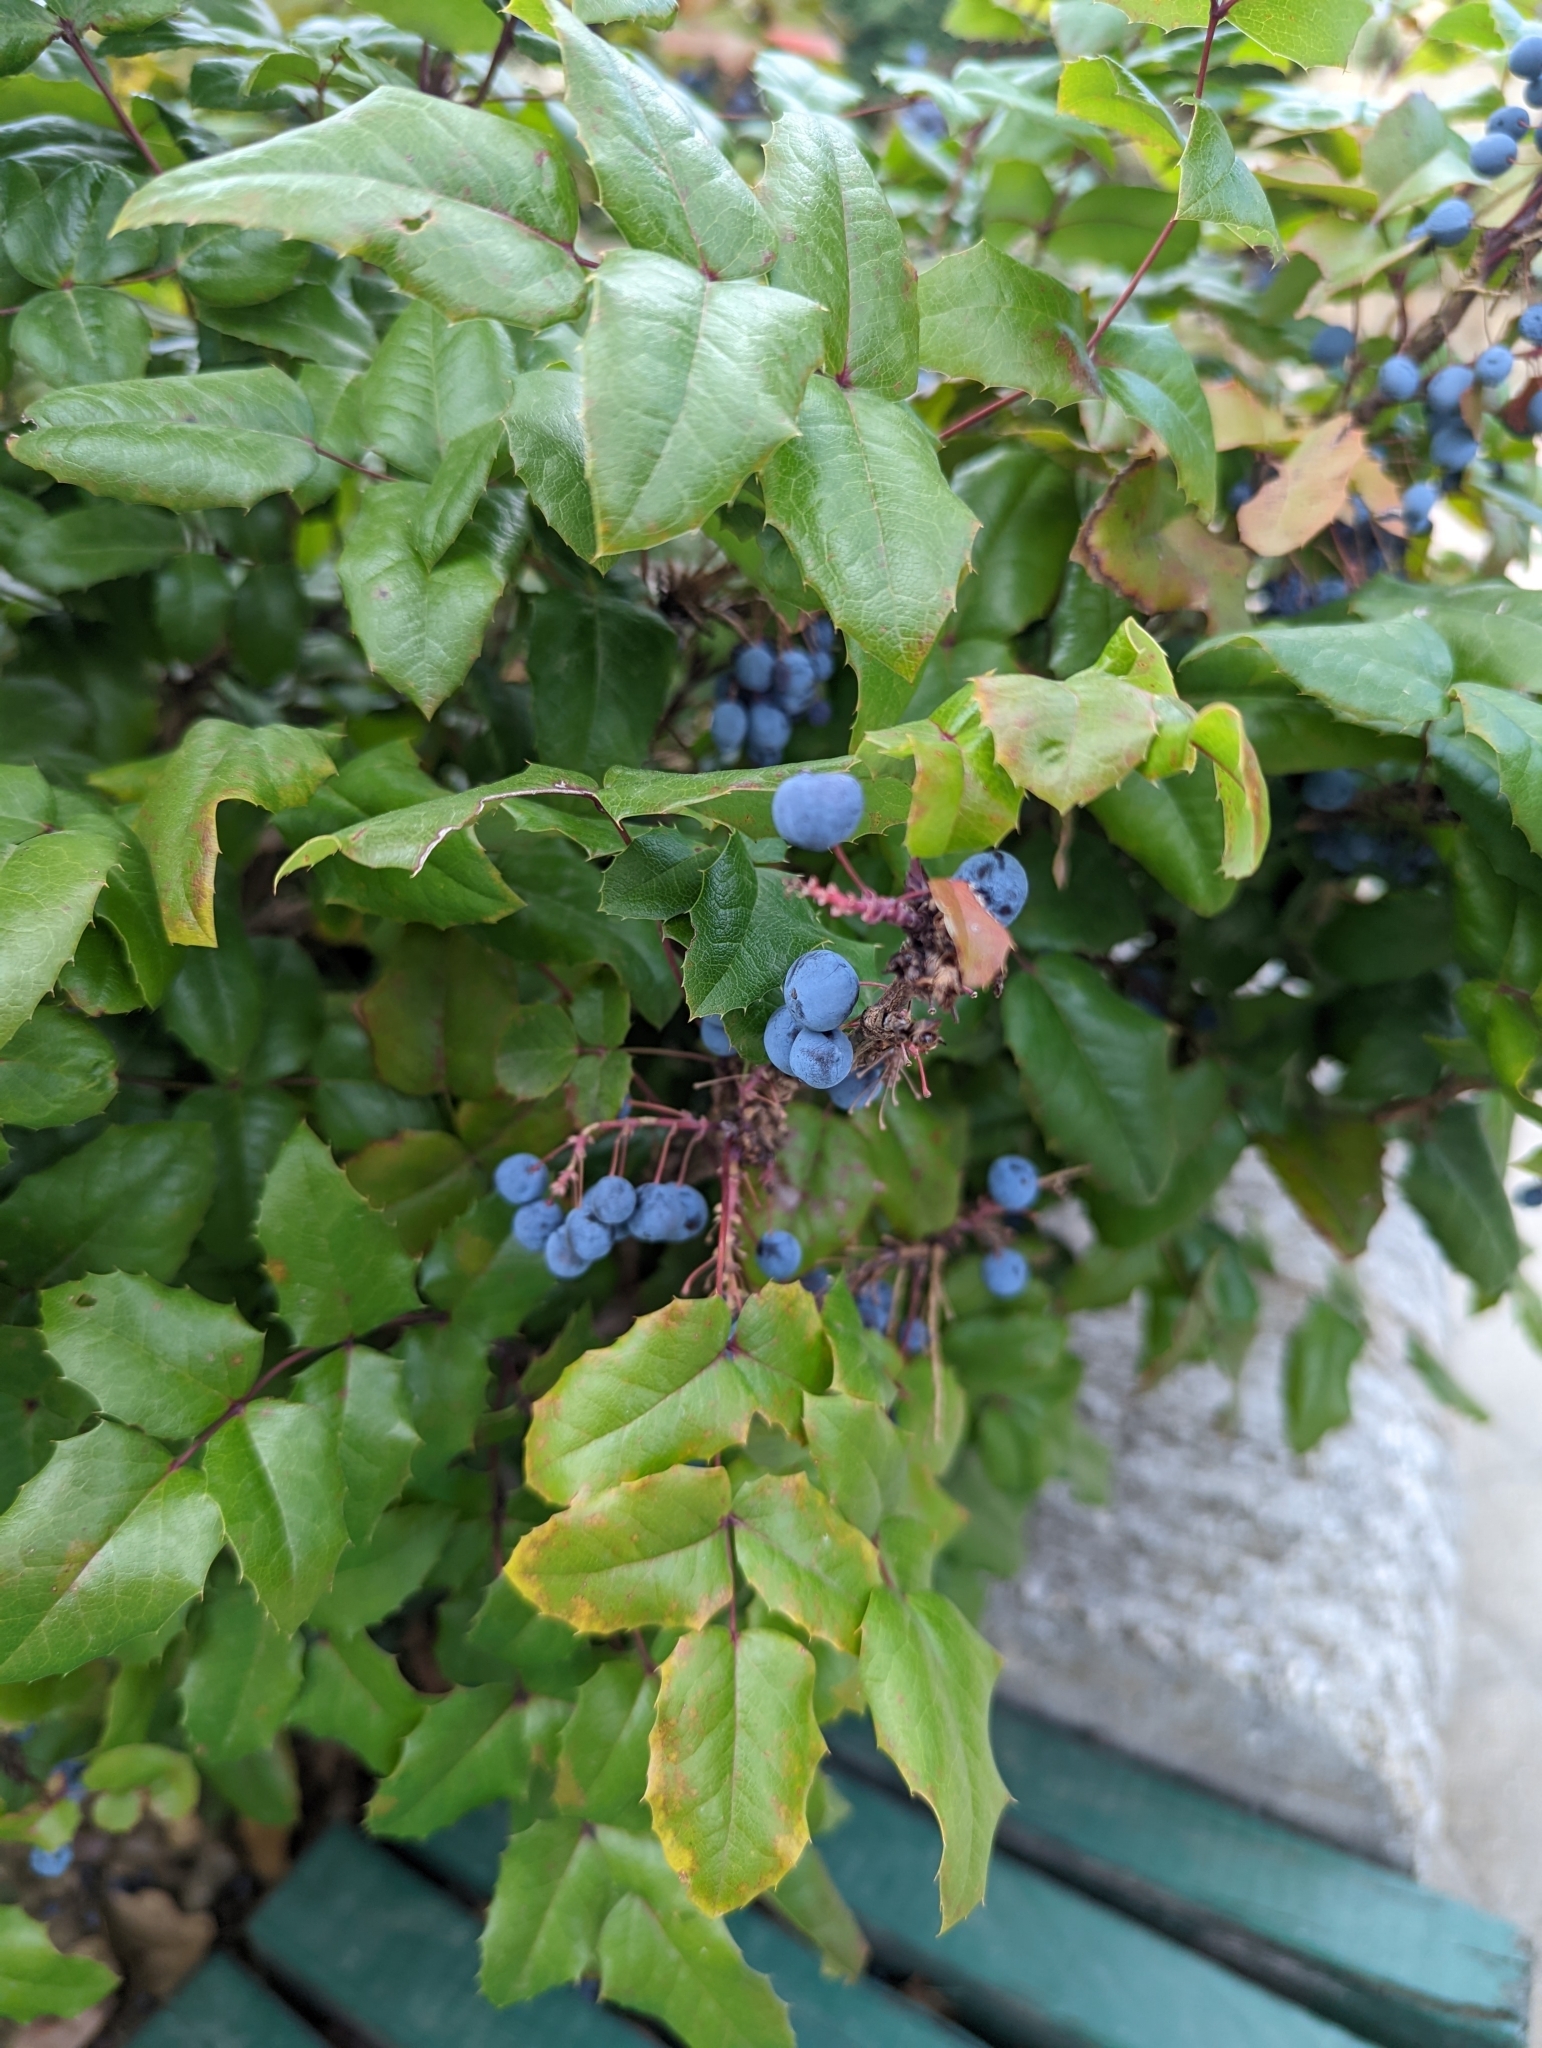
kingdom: Plantae
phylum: Tracheophyta
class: Magnoliopsida
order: Ranunculales
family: Berberidaceae
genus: Mahonia
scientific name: Mahonia aquifolium
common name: Oregon-grape
